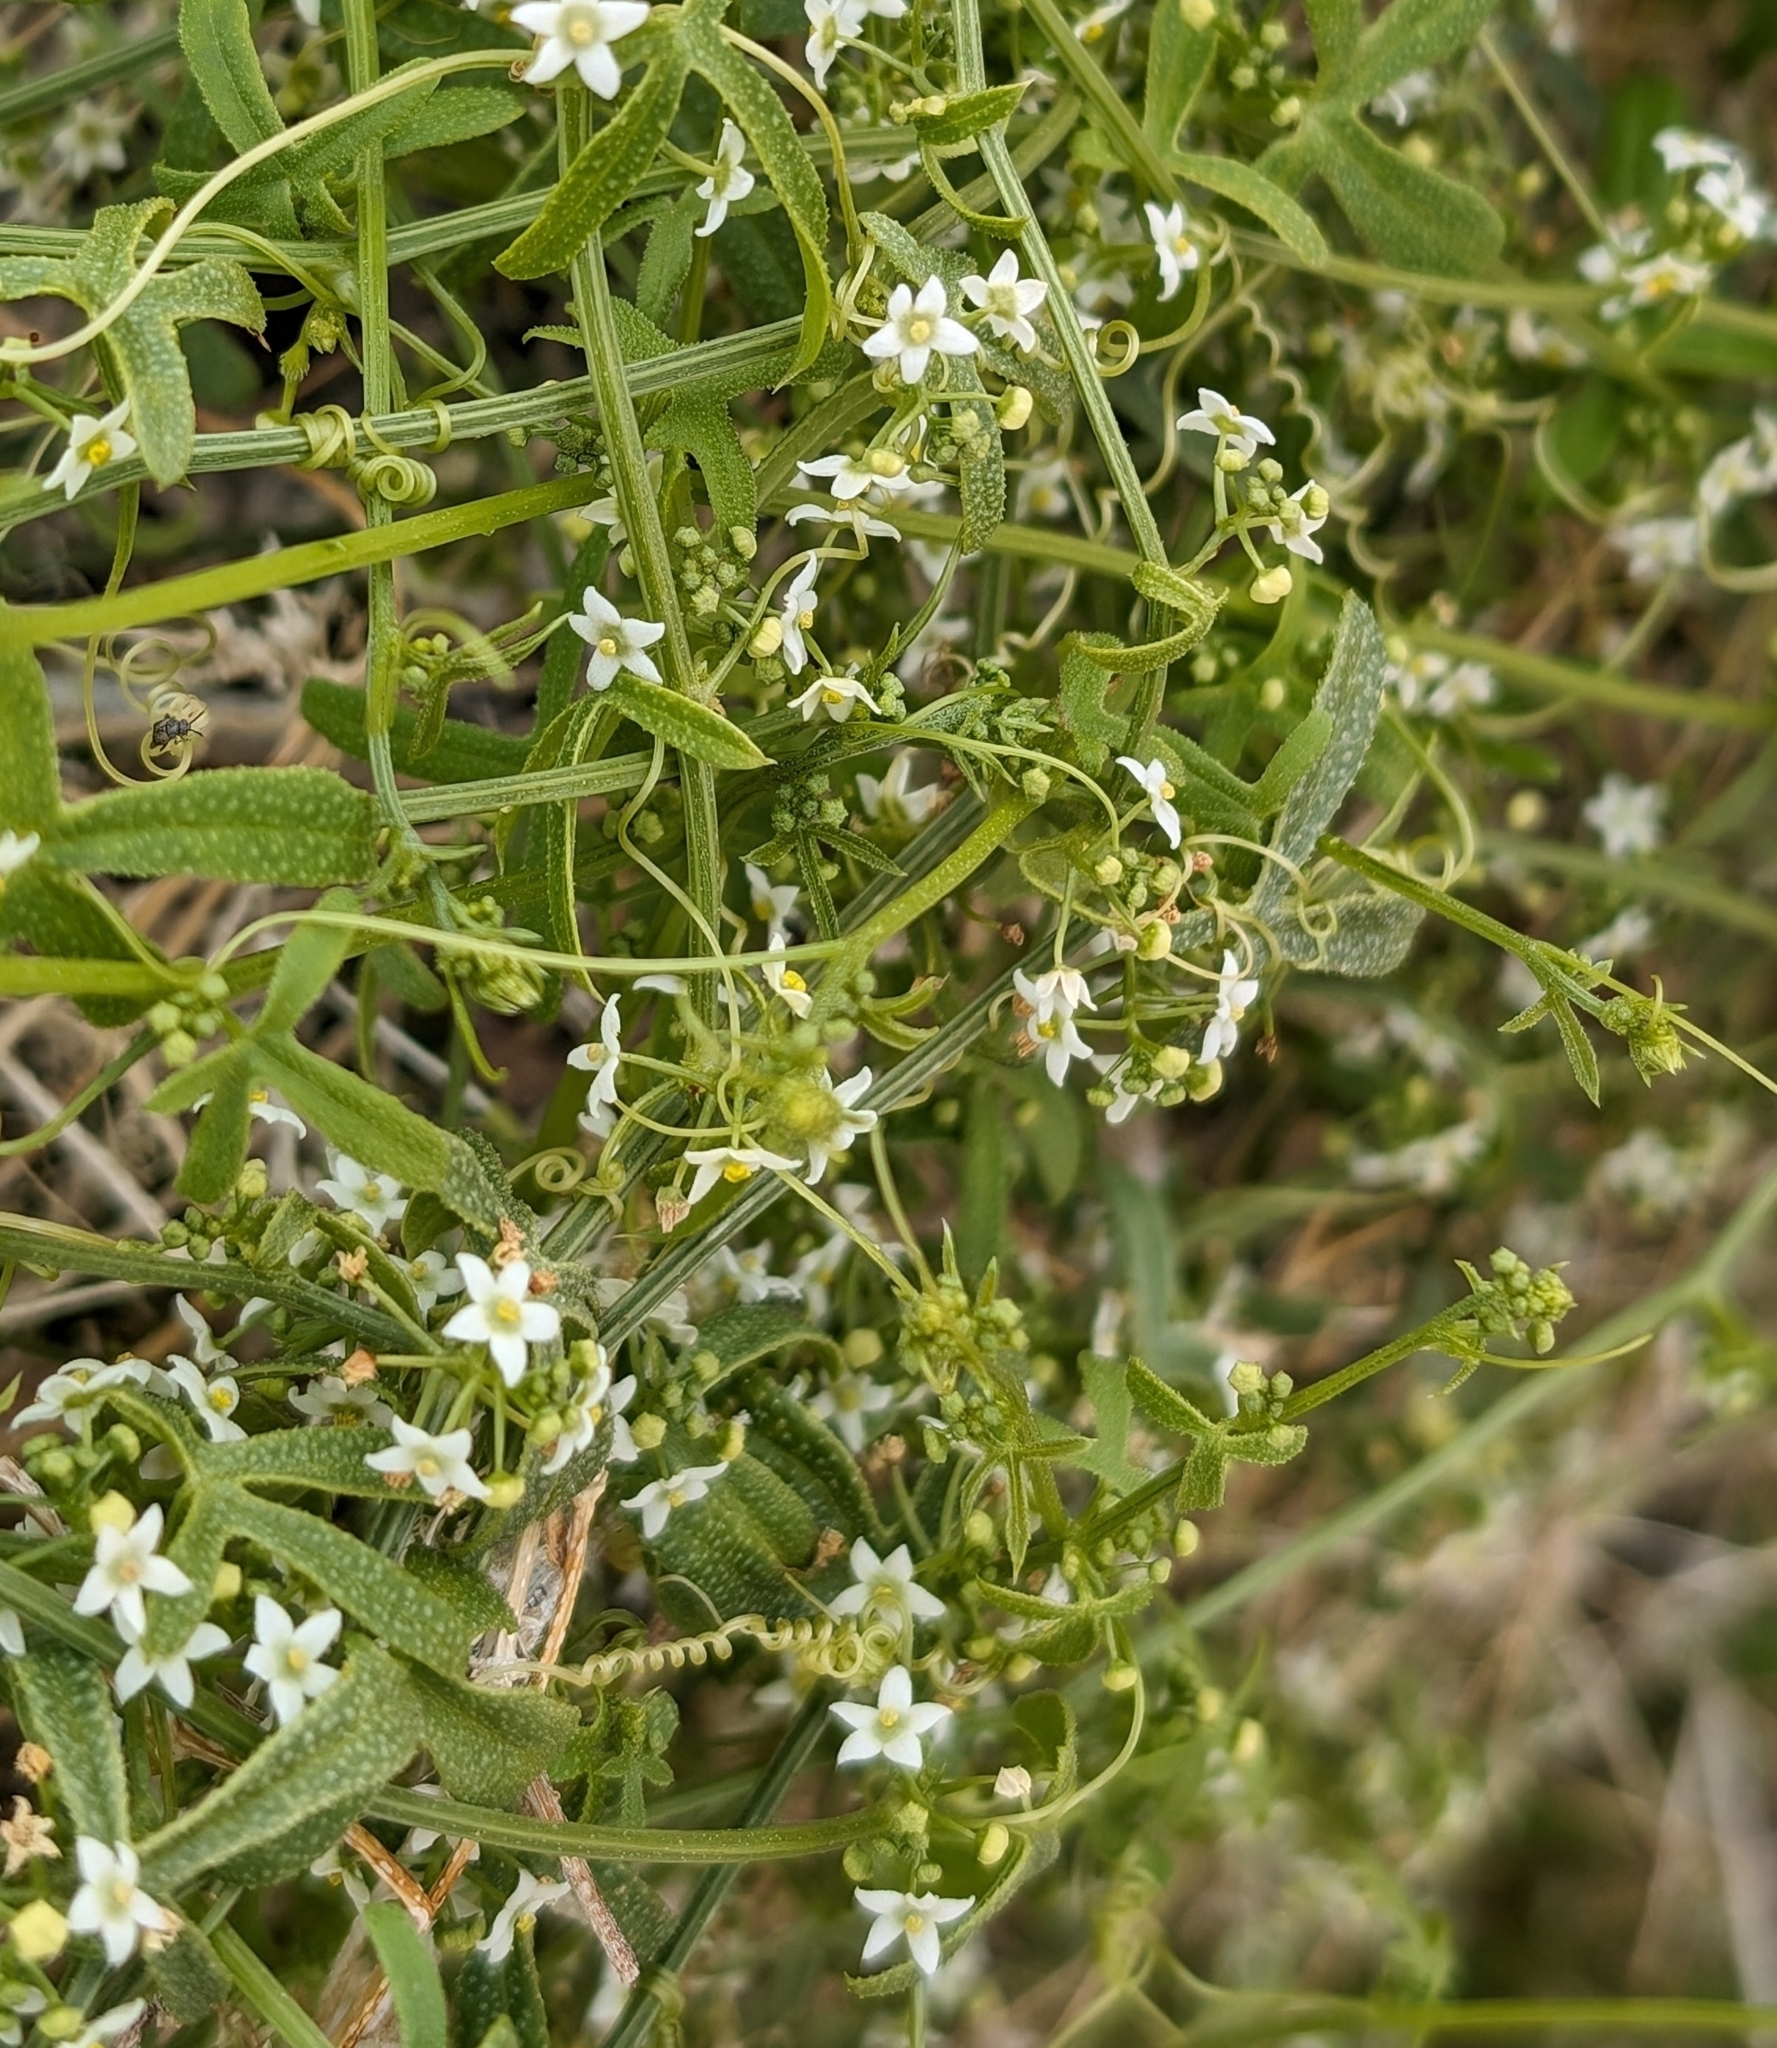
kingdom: Plantae
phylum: Tracheophyta
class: Magnoliopsida
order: Cucurbitales
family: Cucurbitaceae
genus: Echinopepon
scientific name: Echinopepon bigelovii
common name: Desert starvine
